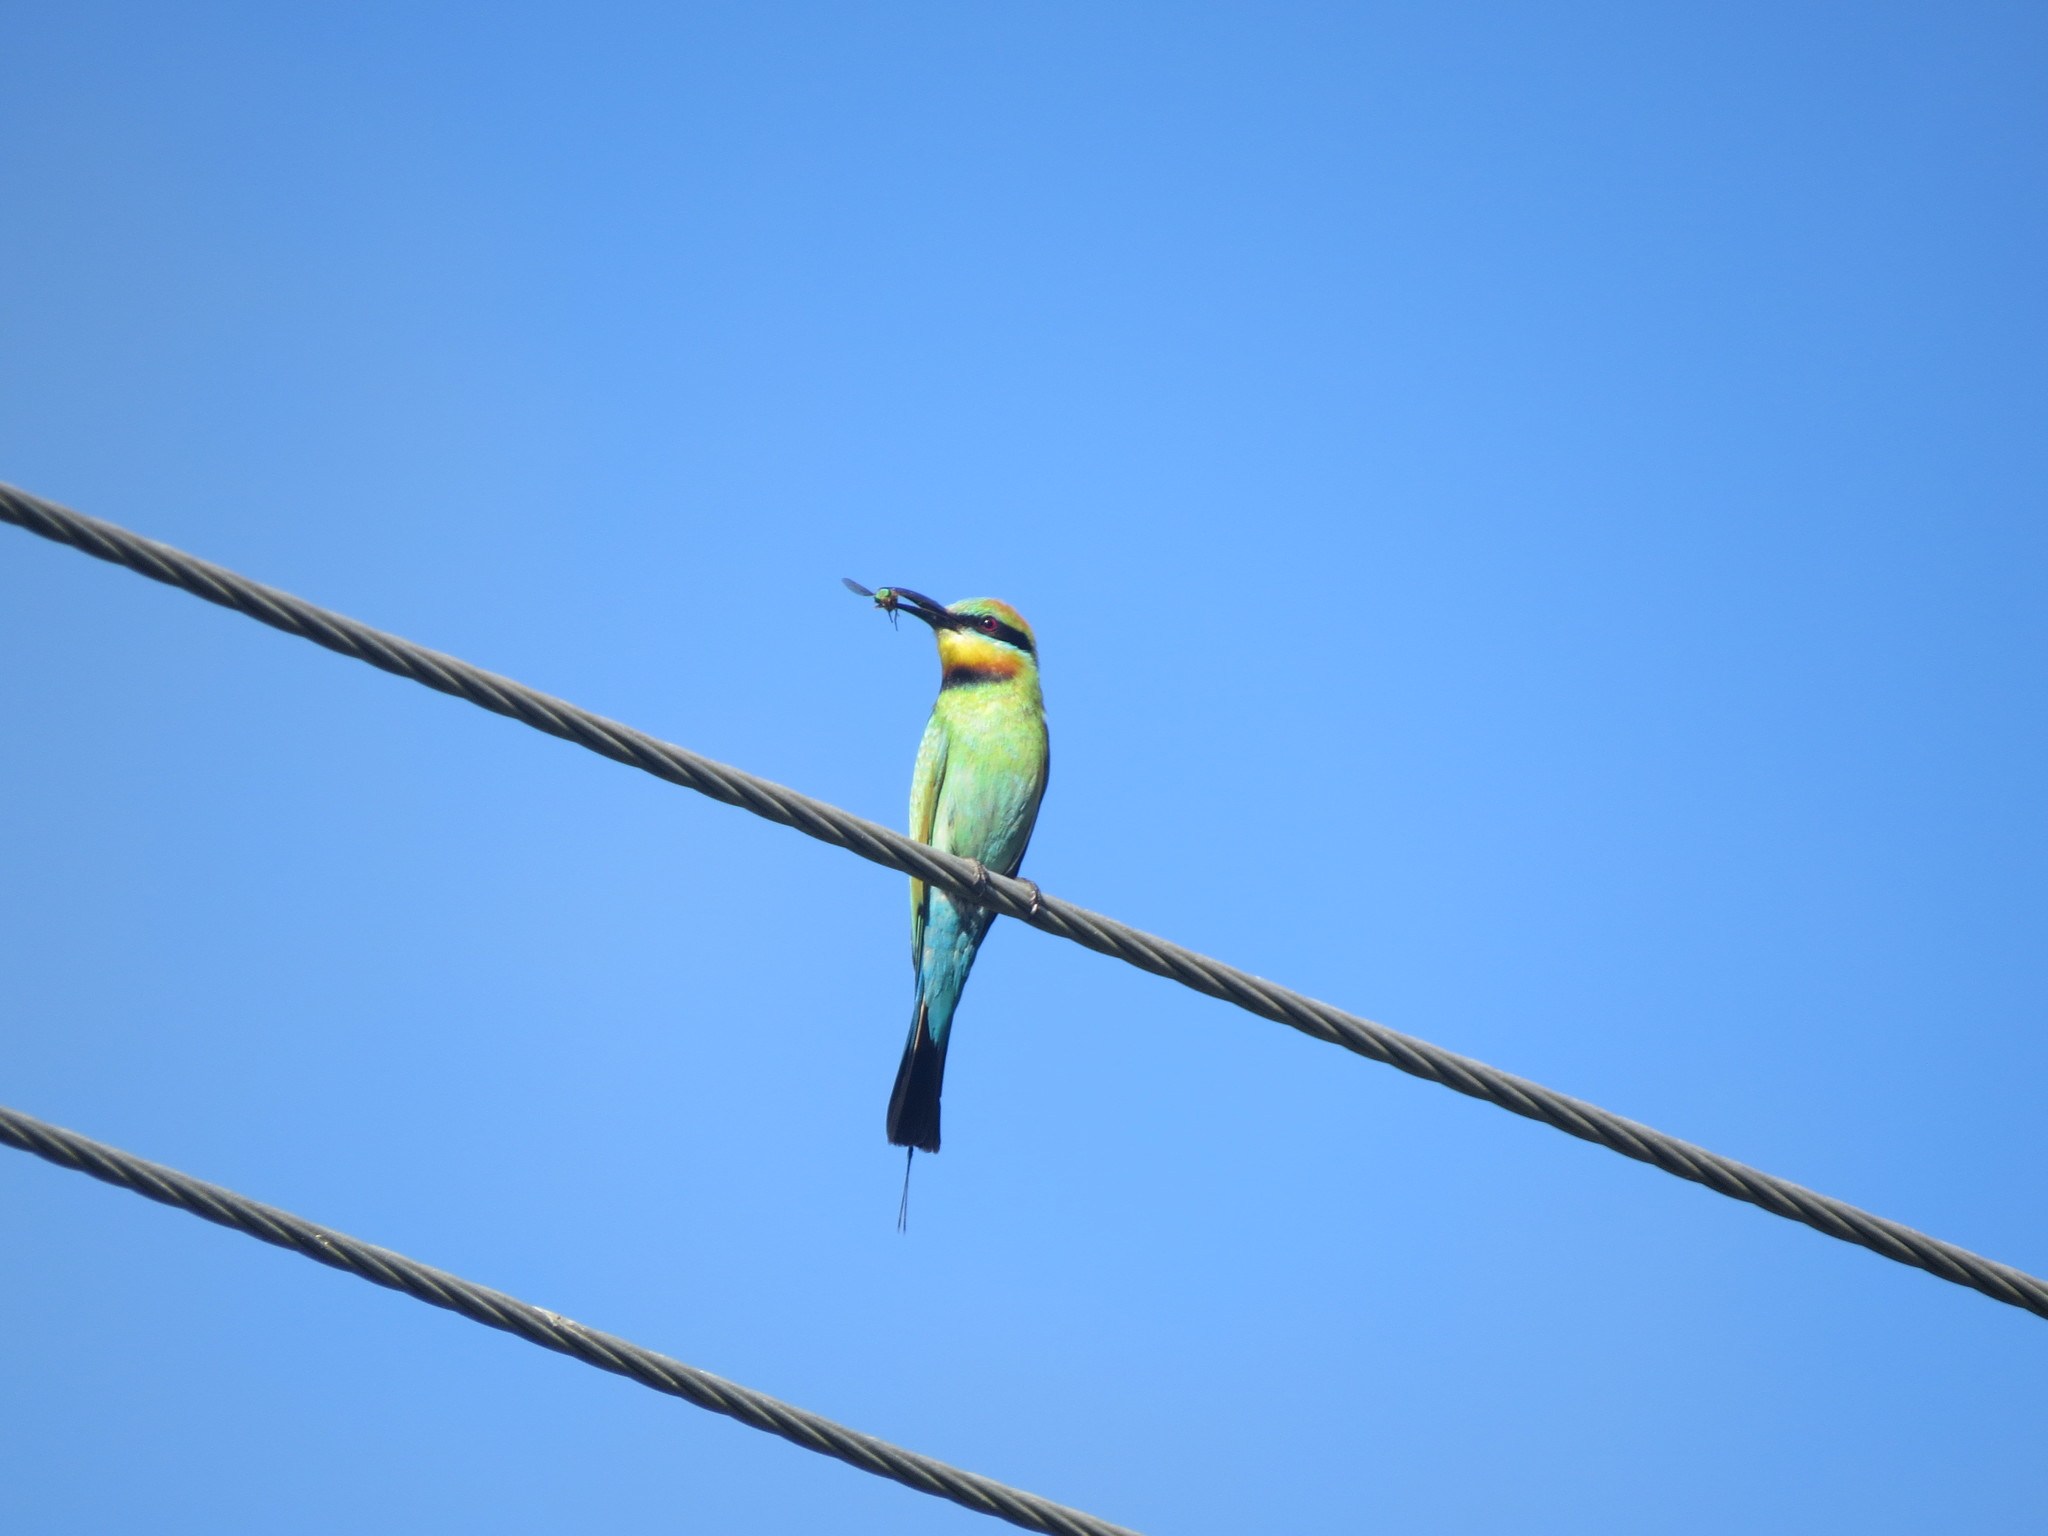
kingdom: Animalia
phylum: Chordata
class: Aves
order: Coraciiformes
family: Meropidae
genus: Merops
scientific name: Merops ornatus
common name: Rainbow bee-eater
